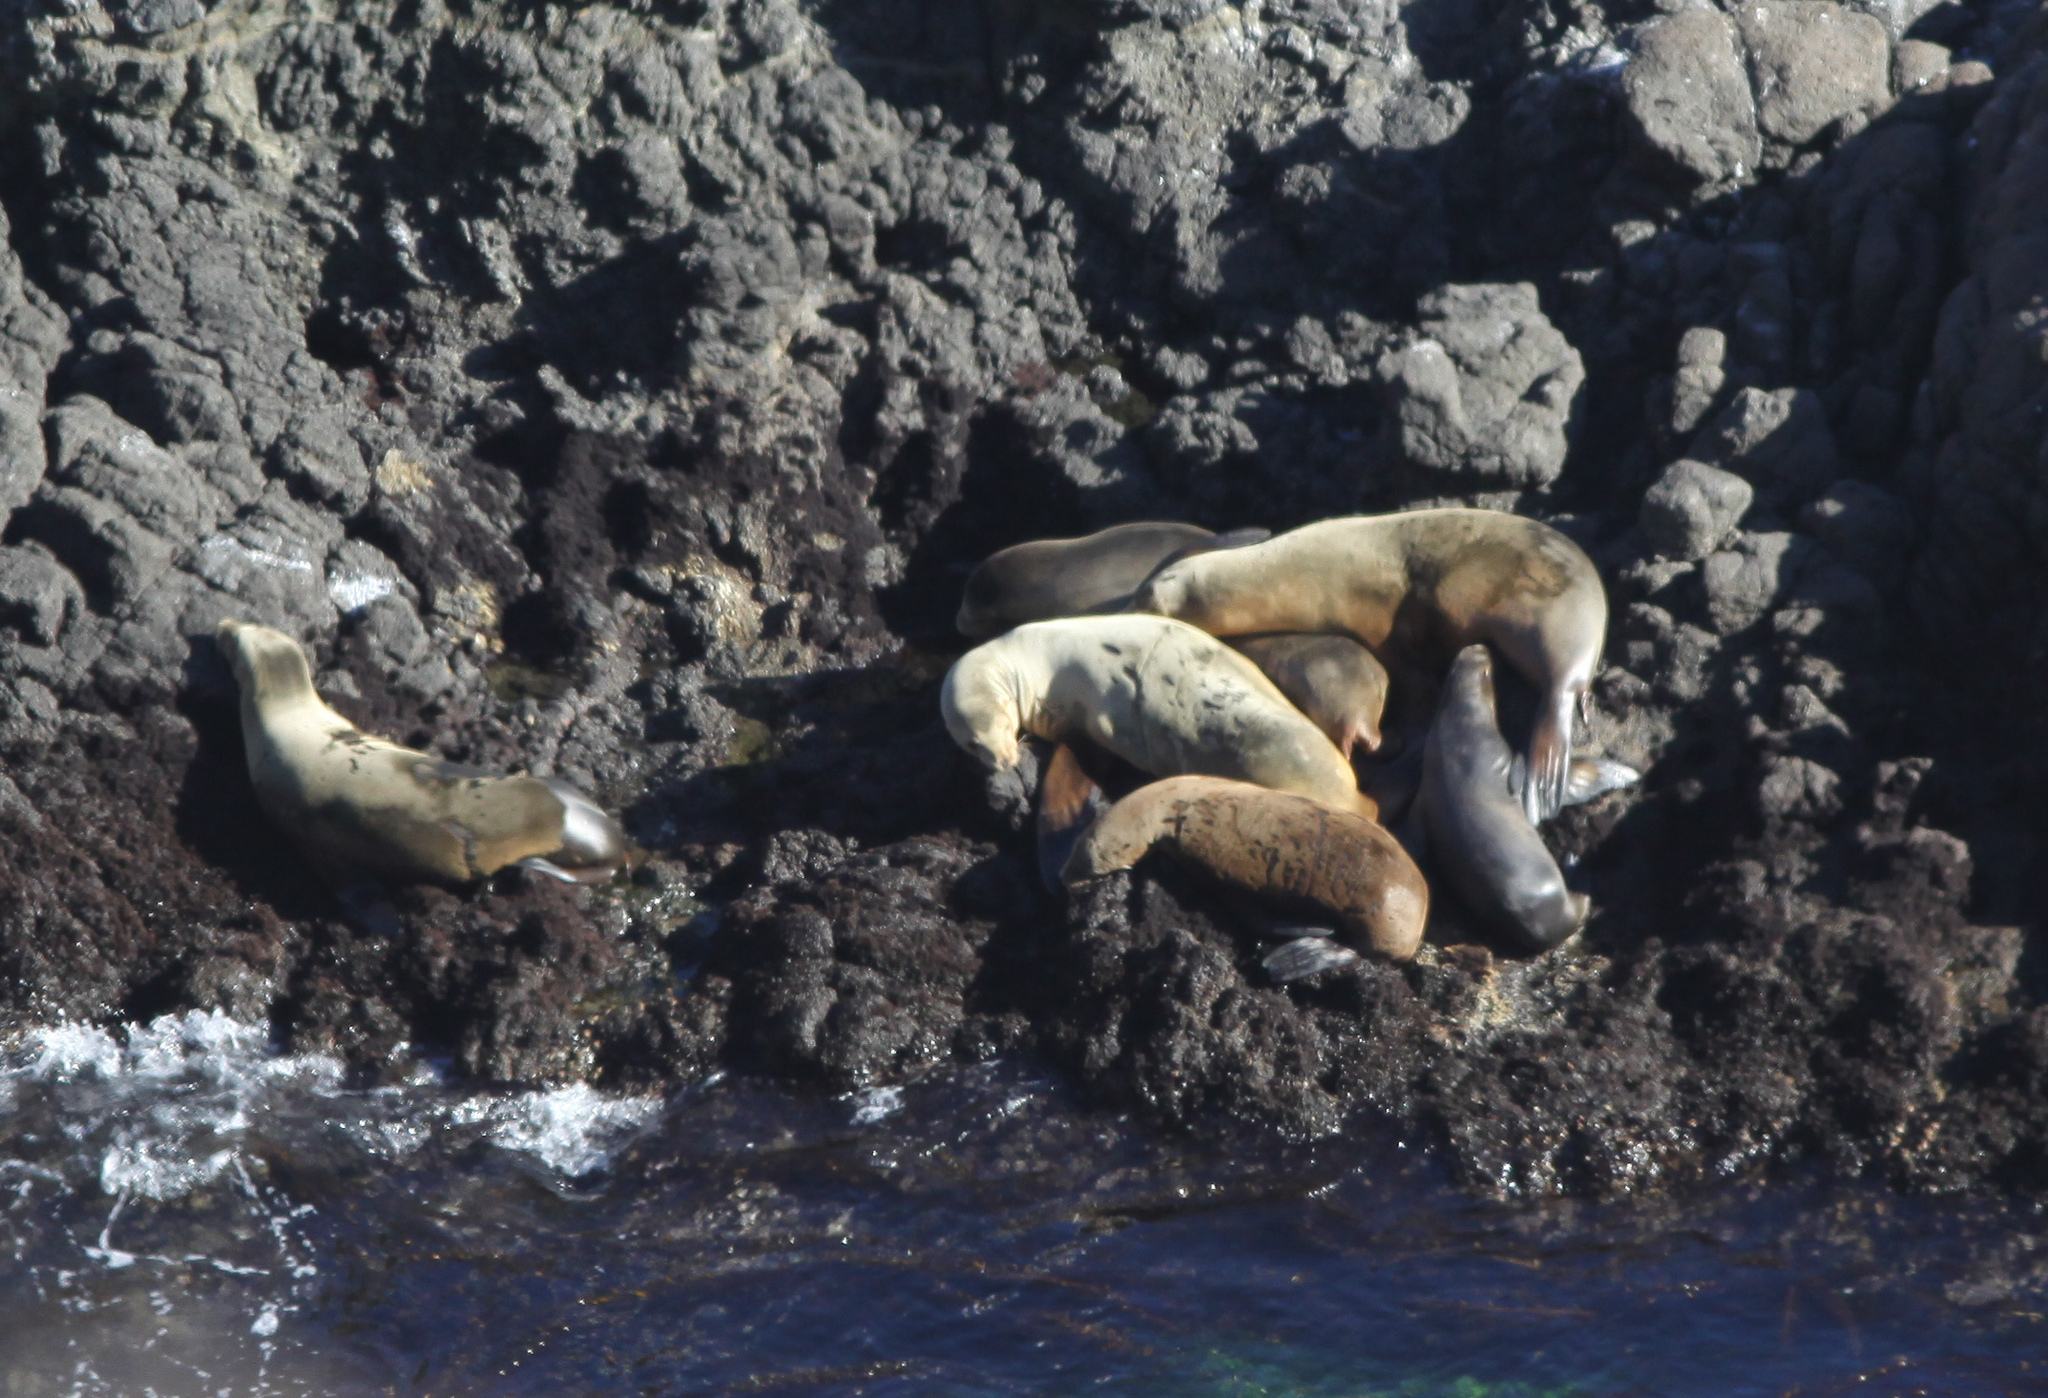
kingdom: Animalia
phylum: Chordata
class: Mammalia
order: Carnivora
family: Otariidae
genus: Zalophus
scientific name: Zalophus californianus
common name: California sea lion
